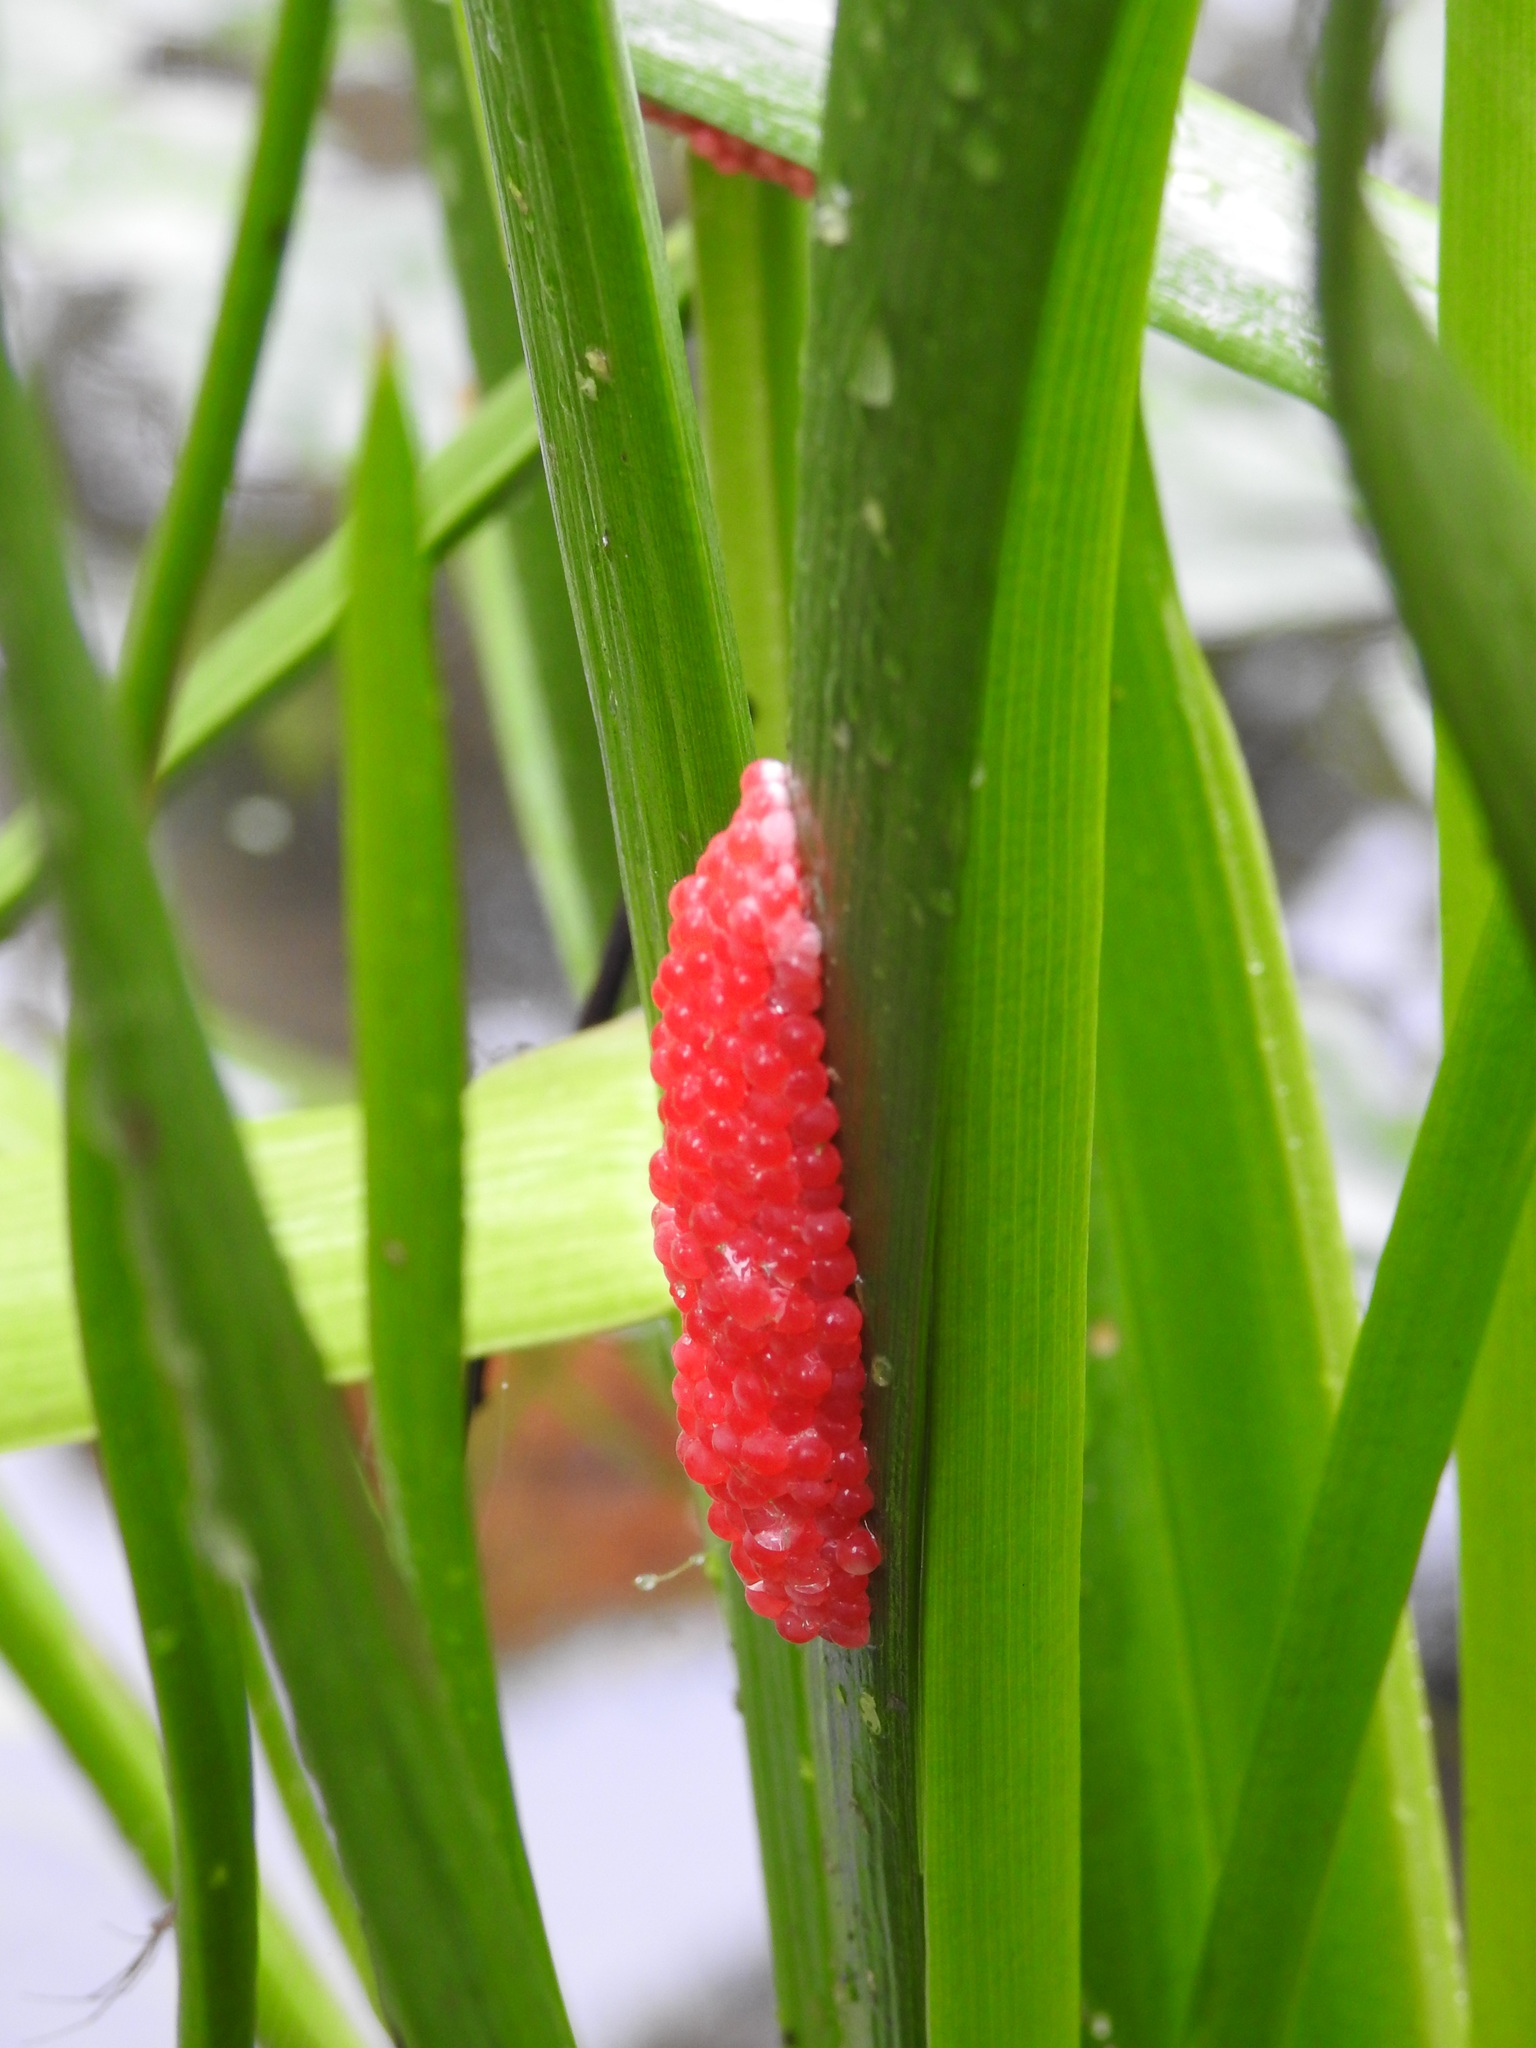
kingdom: Animalia
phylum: Mollusca
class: Gastropoda
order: Architaenioglossa
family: Ampullariidae
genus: Pomacea
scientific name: Pomacea canaliculata
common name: Channeled applesnail
